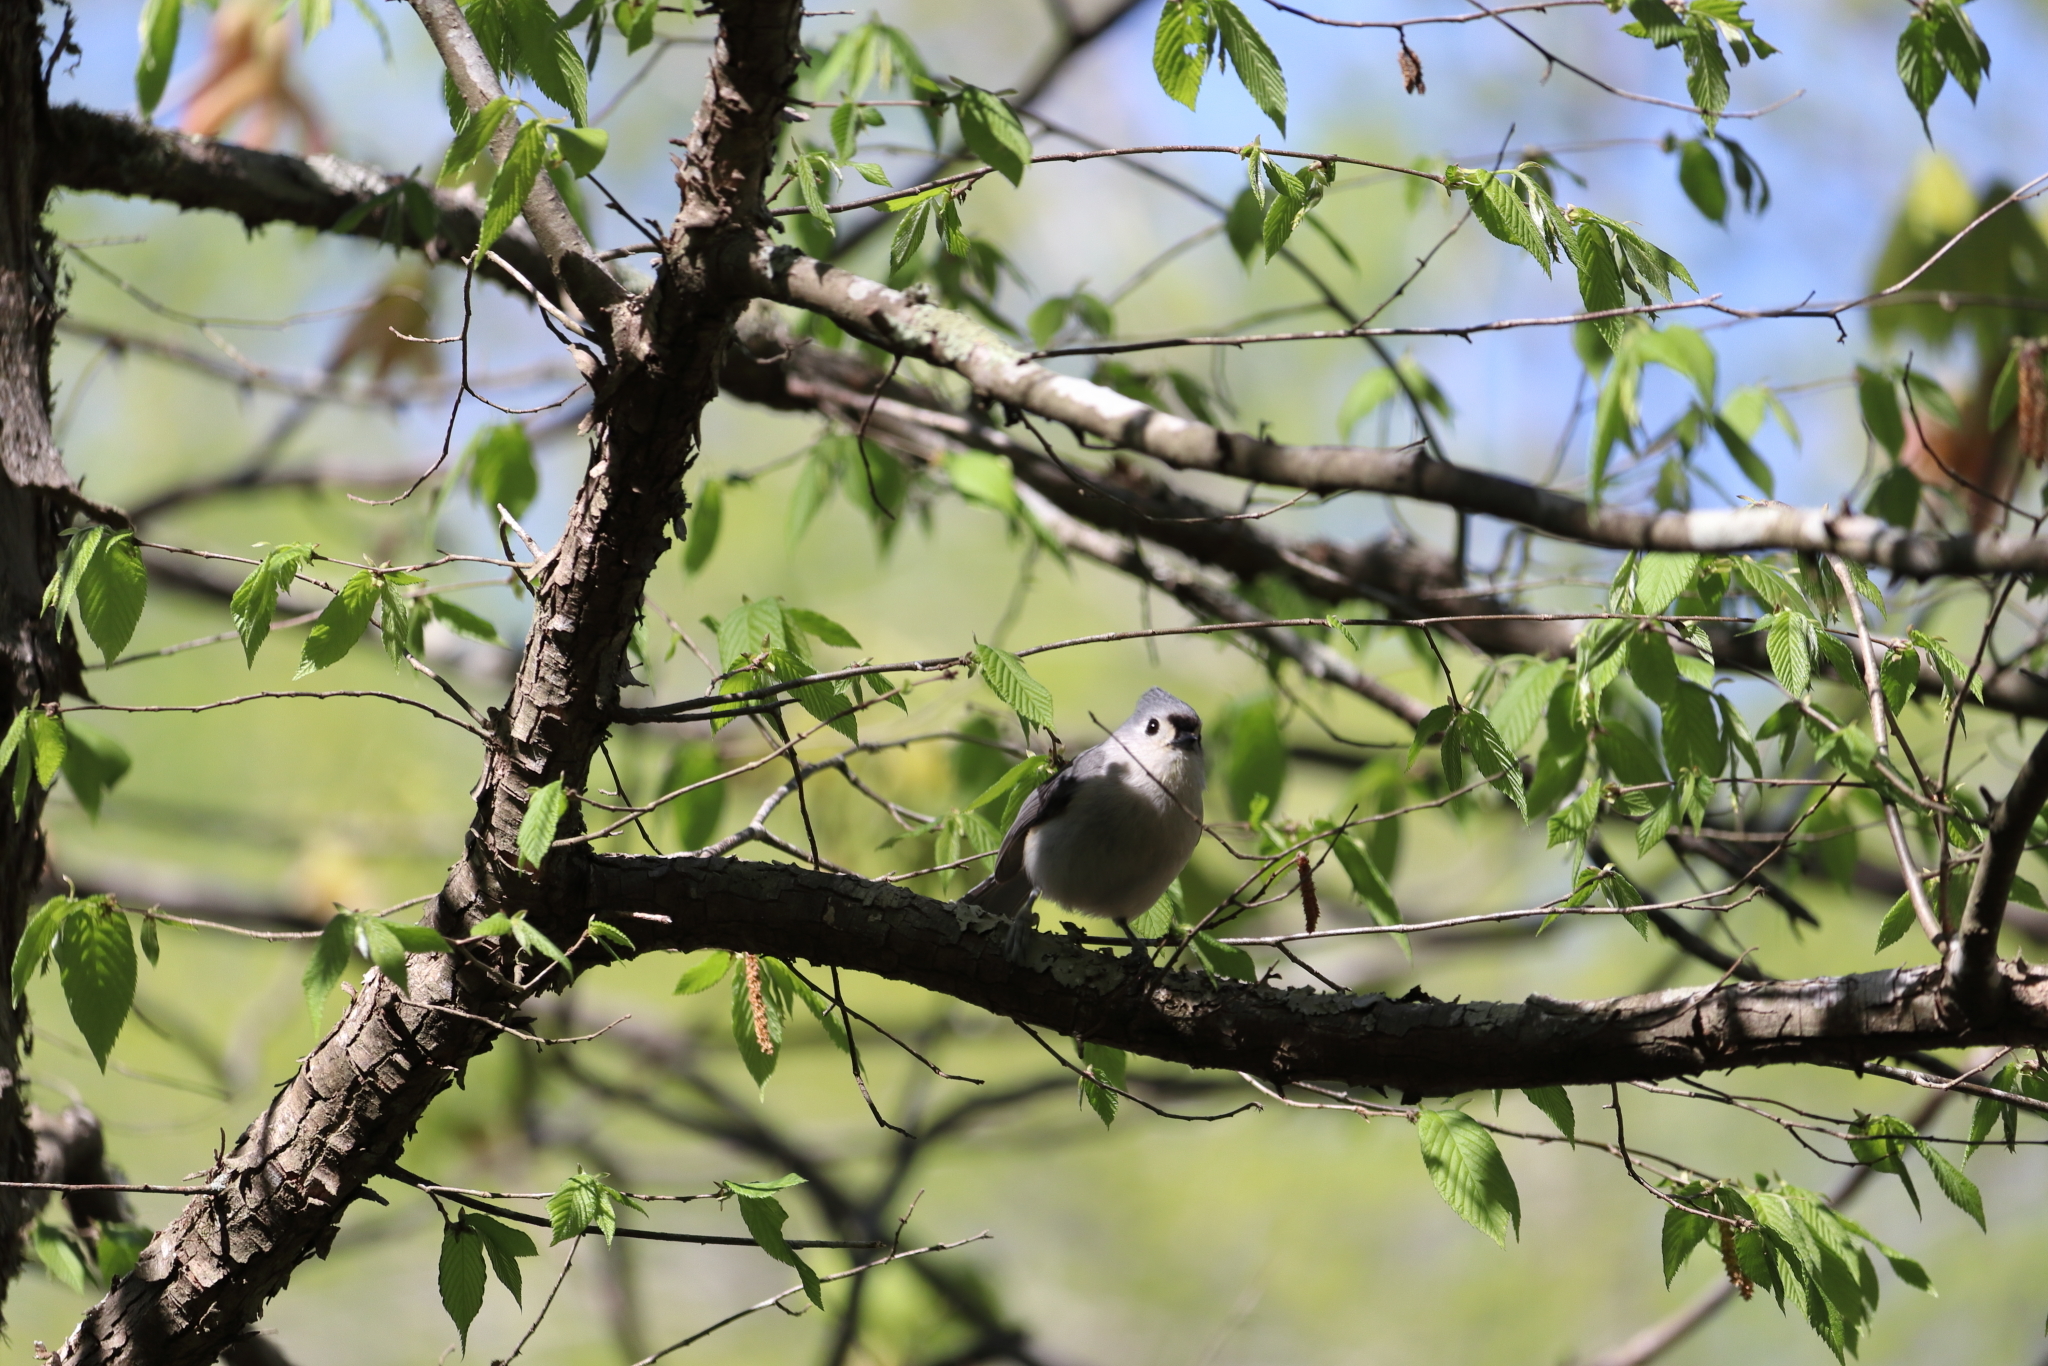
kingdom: Animalia
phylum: Chordata
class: Aves
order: Passeriformes
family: Paridae
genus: Baeolophus
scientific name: Baeolophus bicolor
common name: Tufted titmouse
